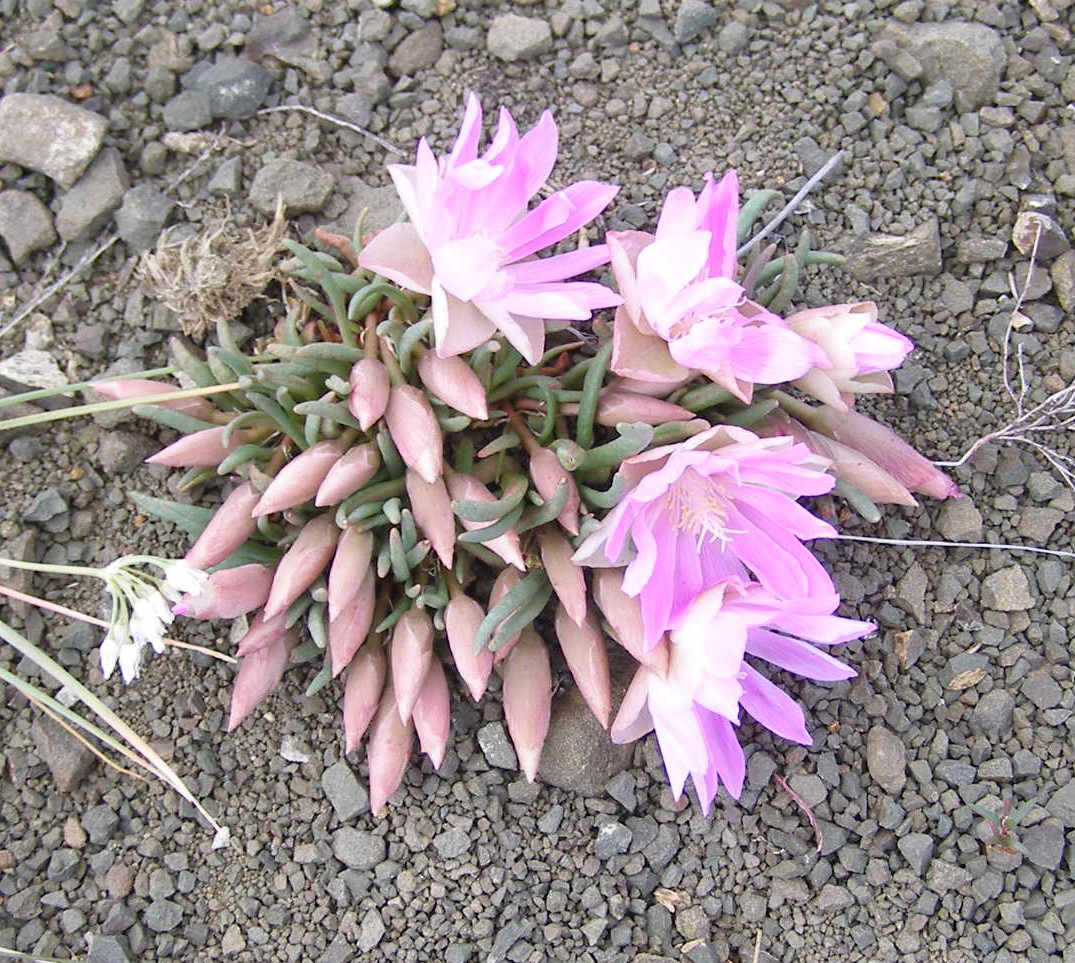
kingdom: Plantae
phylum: Tracheophyta
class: Magnoliopsida
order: Caryophyllales
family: Montiaceae
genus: Lewisia
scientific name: Lewisia rediviva
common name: Bitter-root
